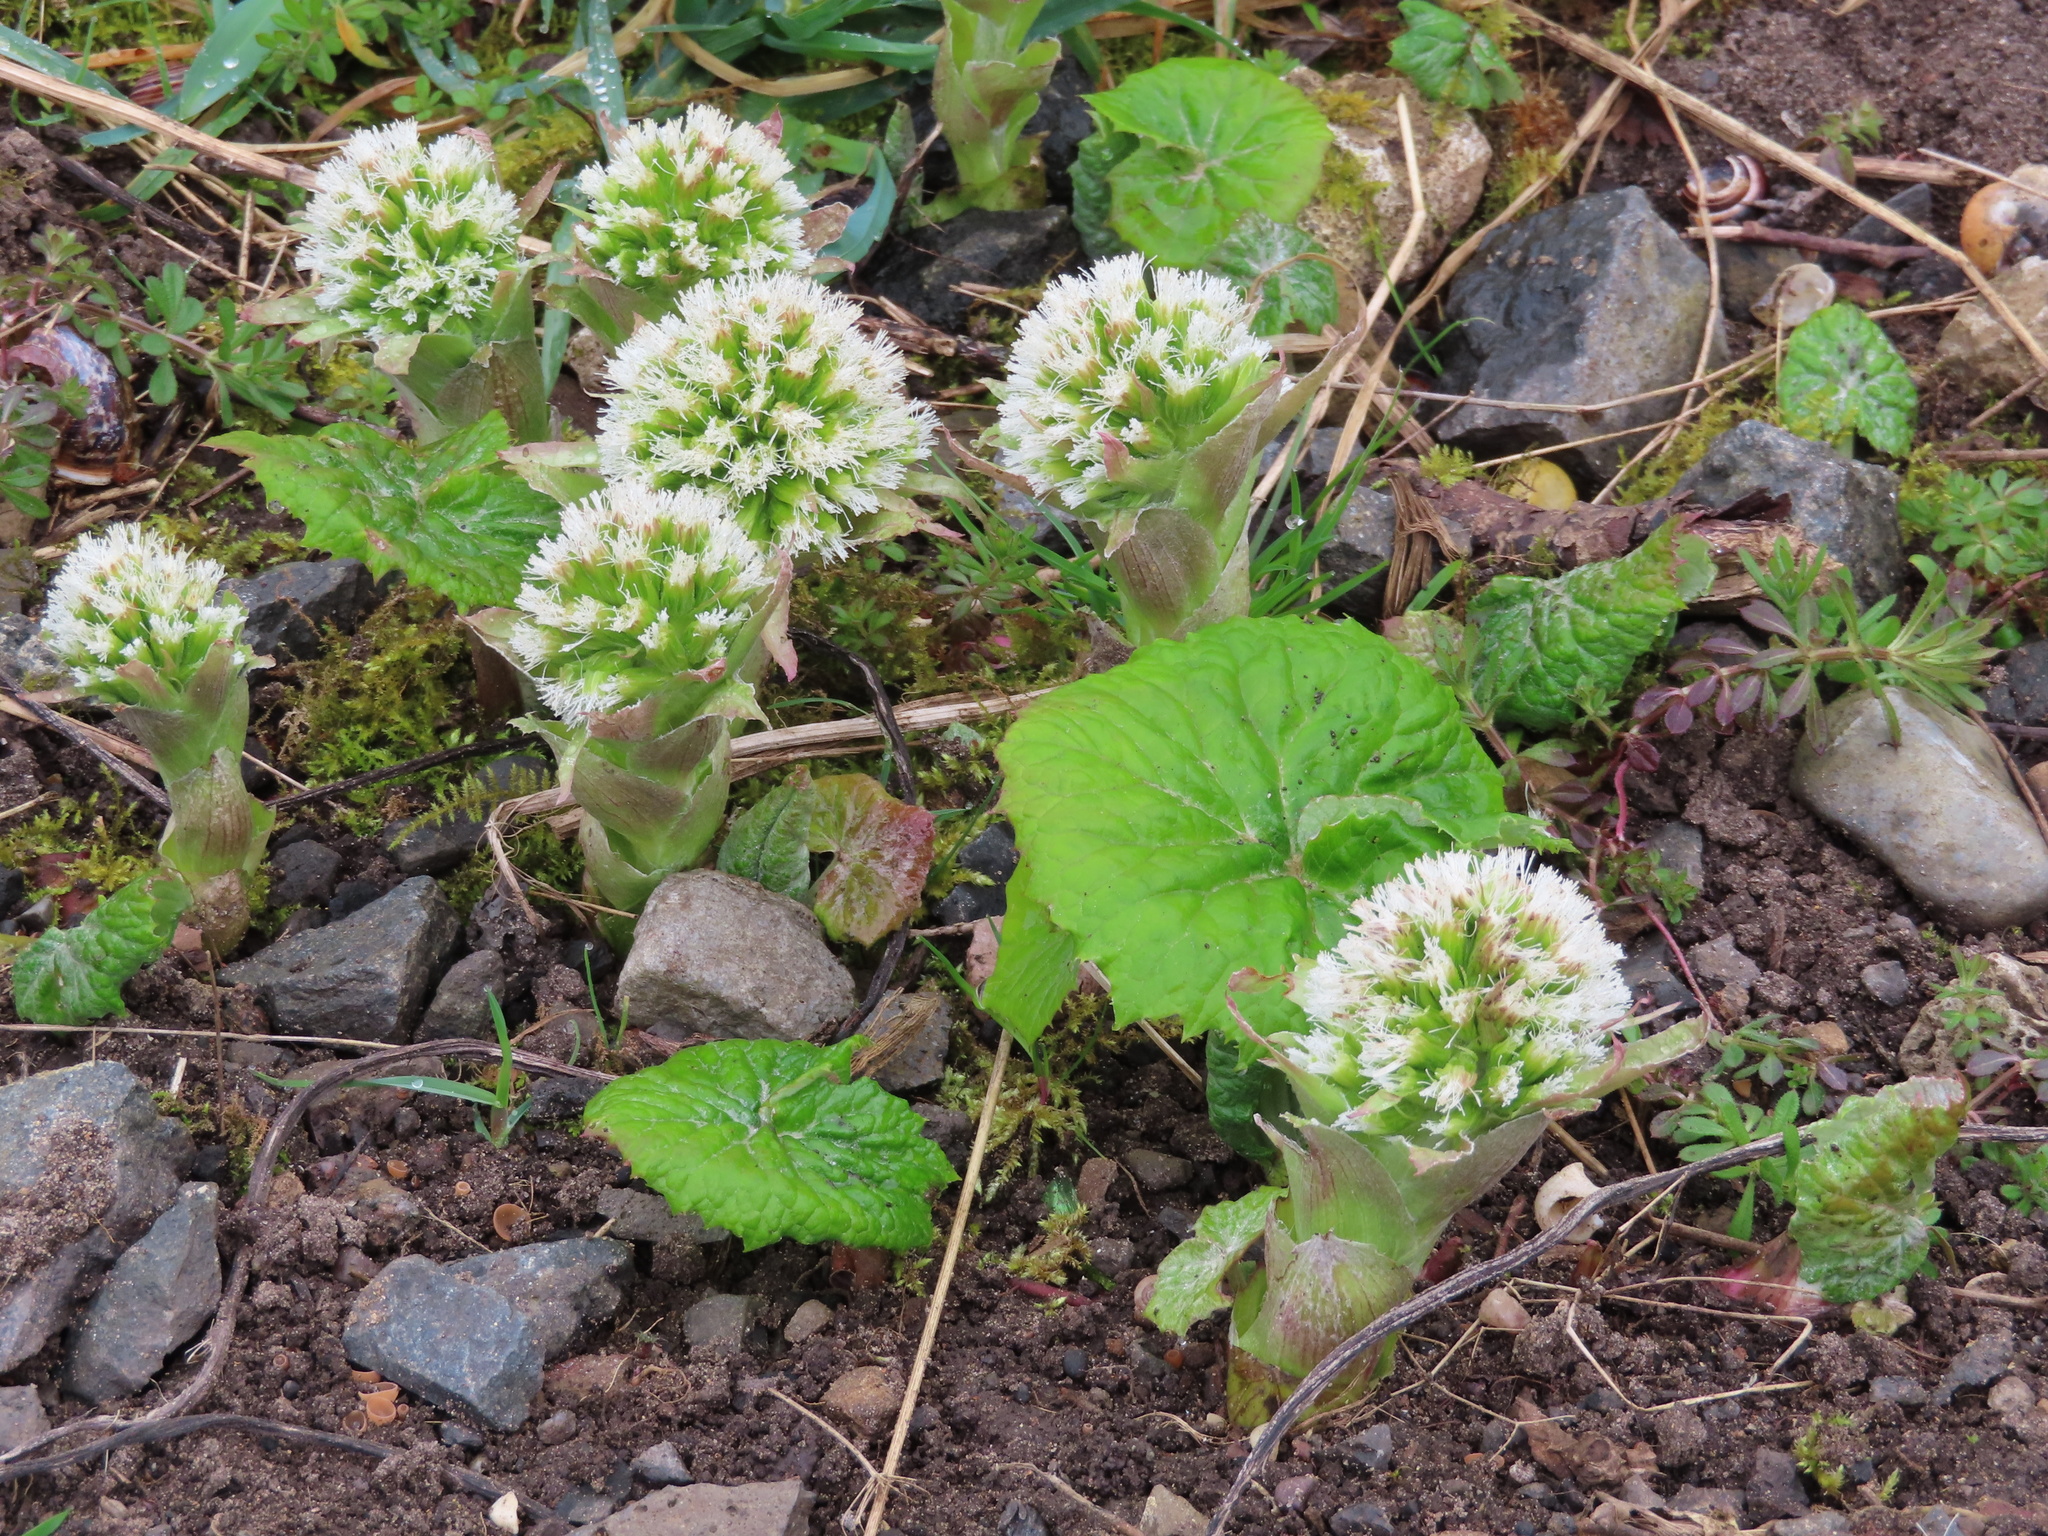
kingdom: Plantae
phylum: Tracheophyta
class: Magnoliopsida
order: Asterales
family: Asteraceae
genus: Petasites
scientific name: Petasites albus
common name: White butterbur
